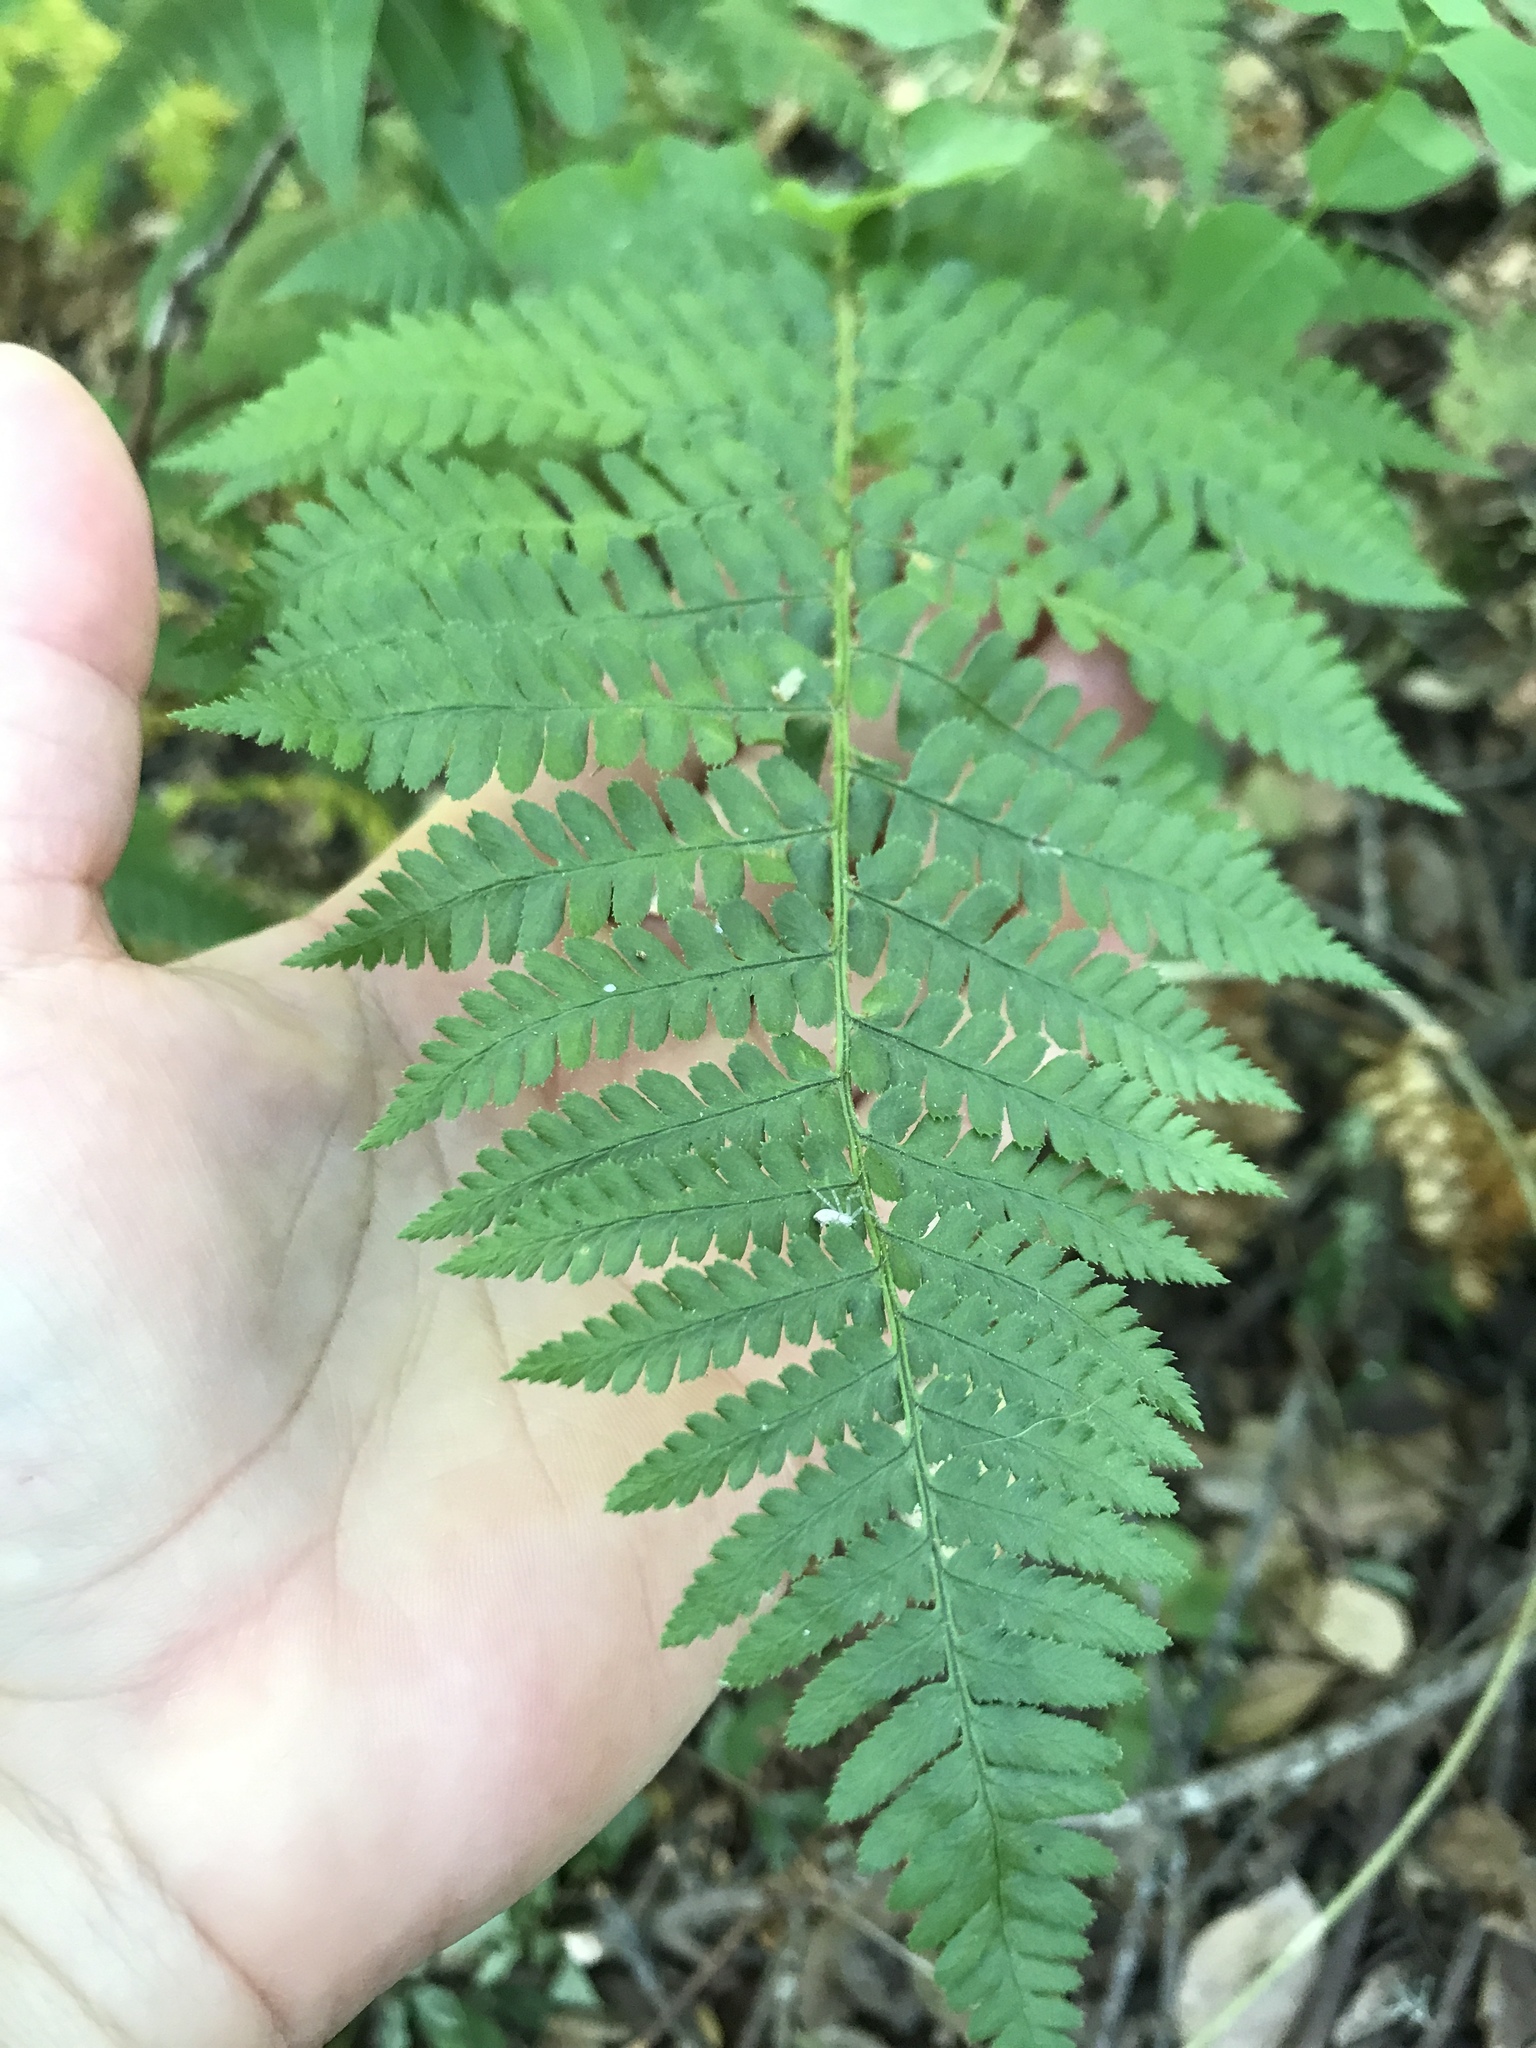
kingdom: Plantae
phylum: Tracheophyta
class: Polypodiopsida
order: Polypodiales
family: Dryopteridaceae
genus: Dryopteris
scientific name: Dryopteris arguta
